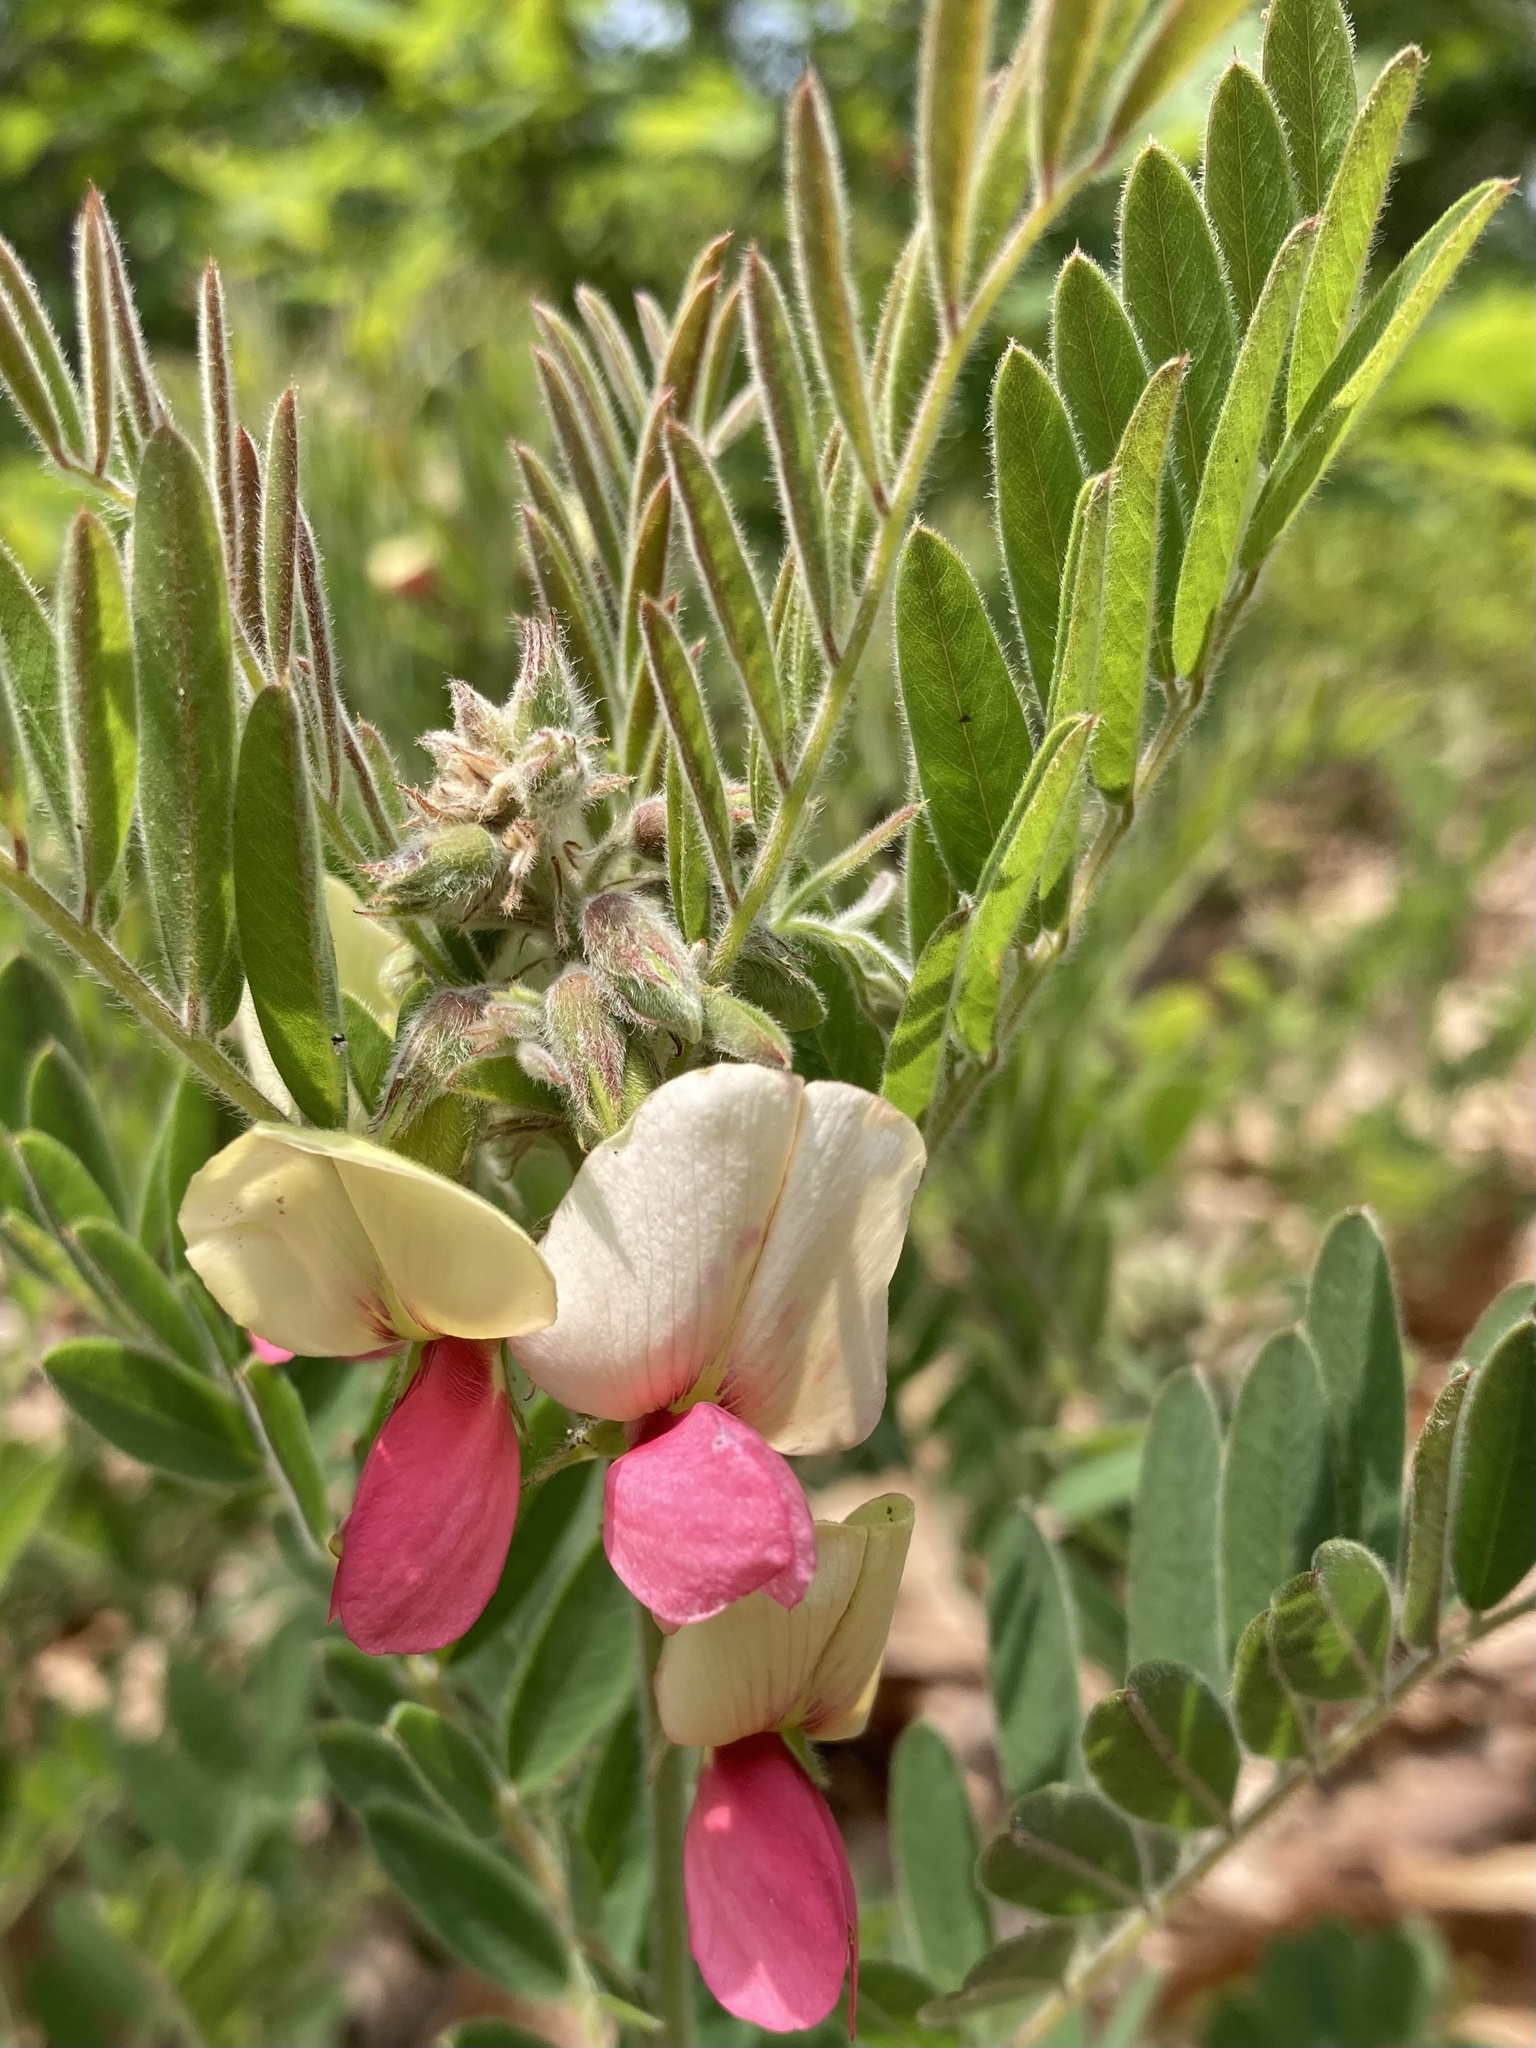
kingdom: Plantae
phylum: Tracheophyta
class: Magnoliopsida
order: Fabales
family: Fabaceae
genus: Tephrosia
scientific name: Tephrosia virginiana
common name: Rabbit-pea
